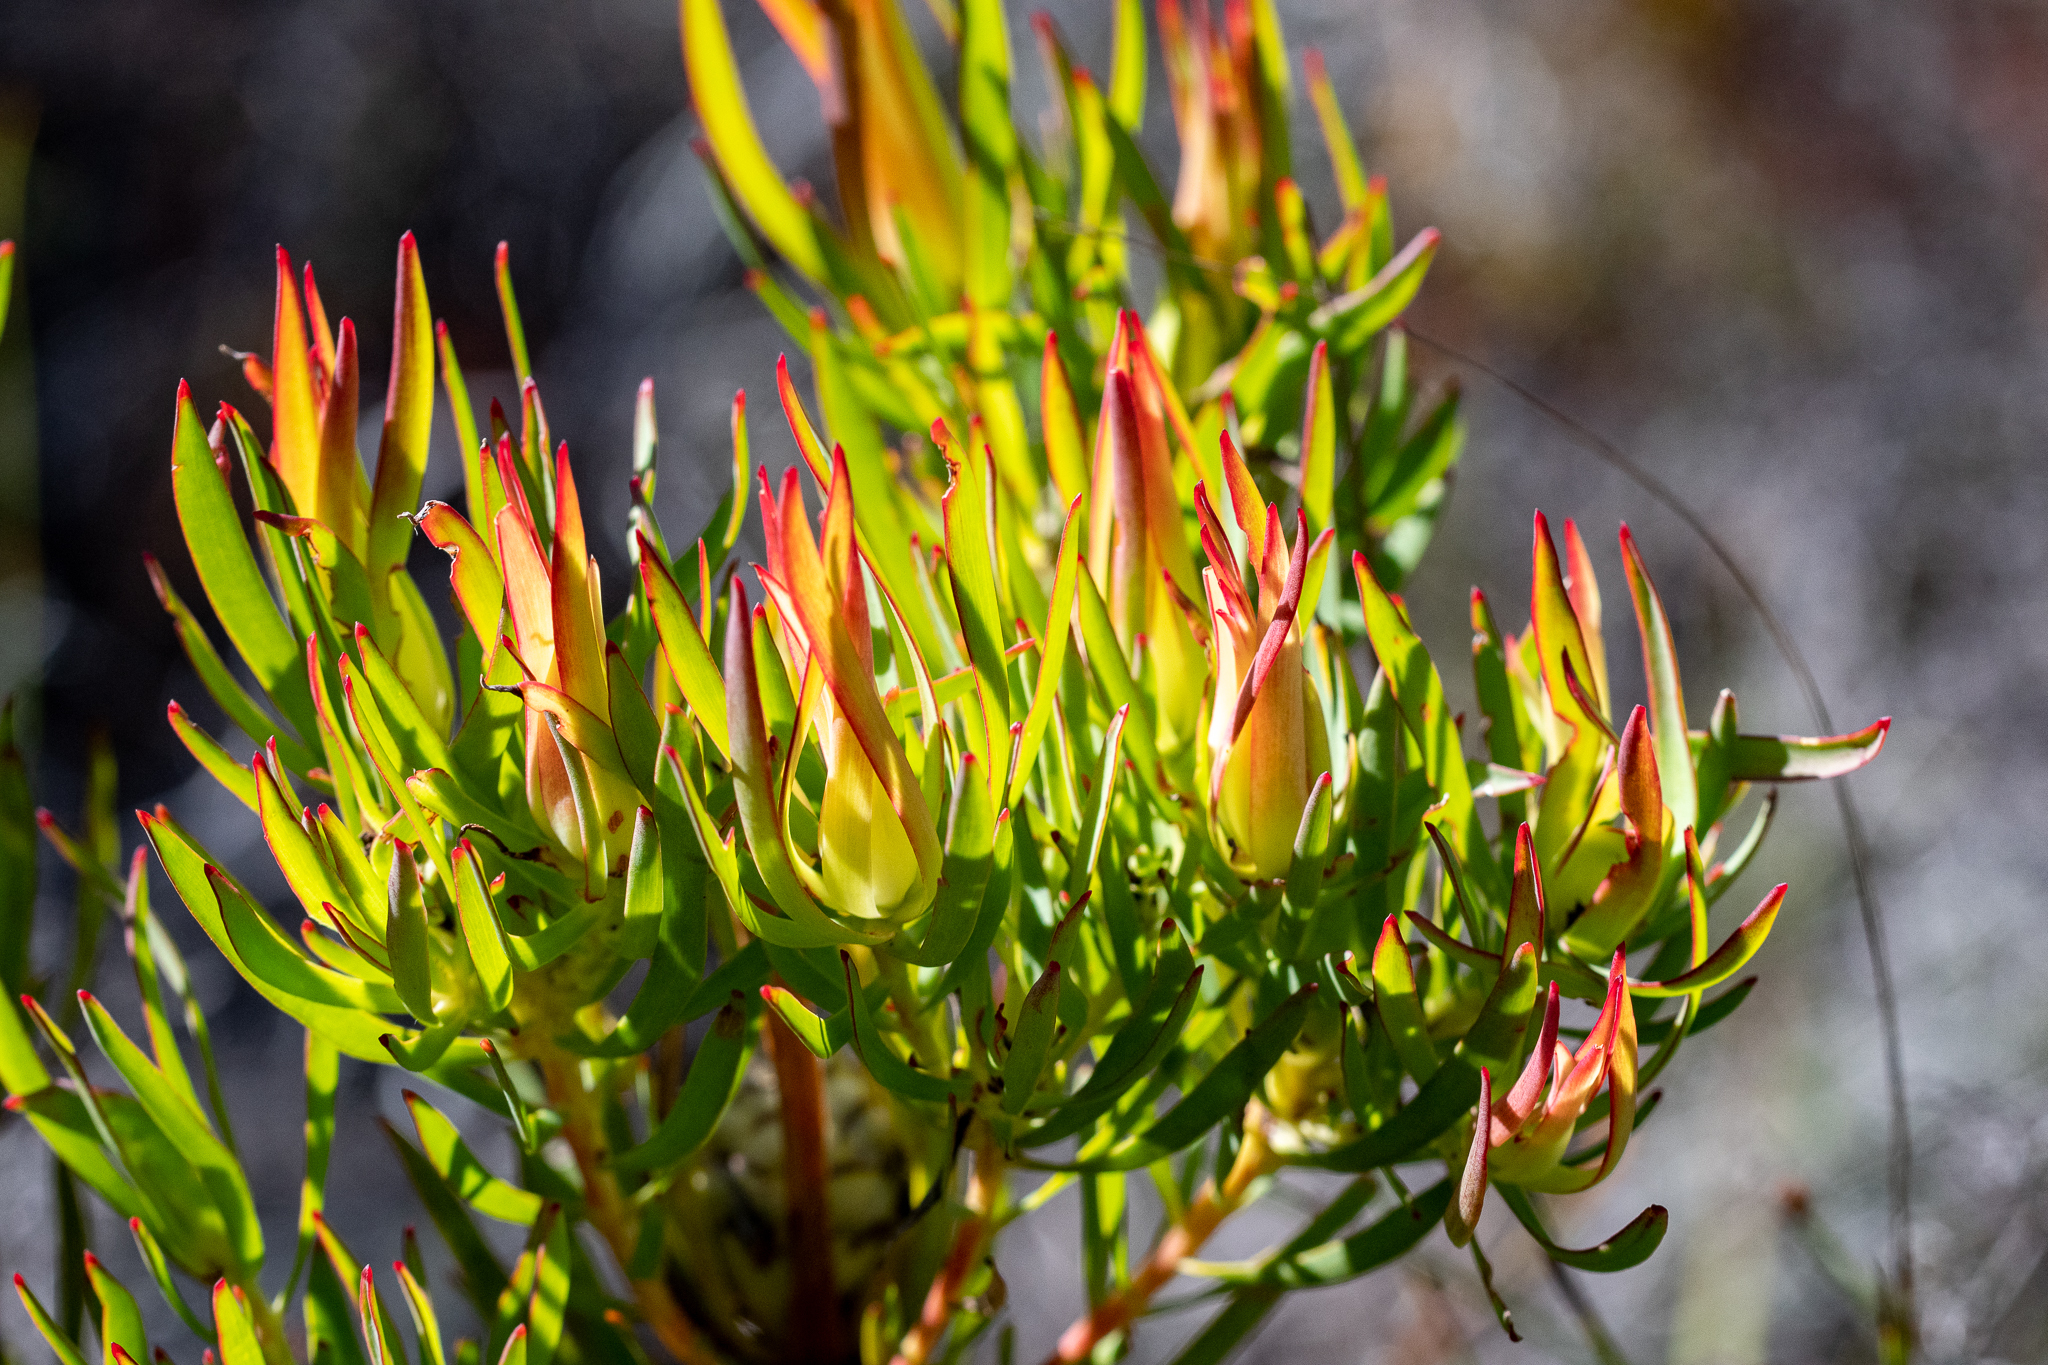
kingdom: Plantae
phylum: Tracheophyta
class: Magnoliopsida
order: Proteales
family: Proteaceae
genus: Leucadendron
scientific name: Leucadendron salignum
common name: Common sunshine conebush
